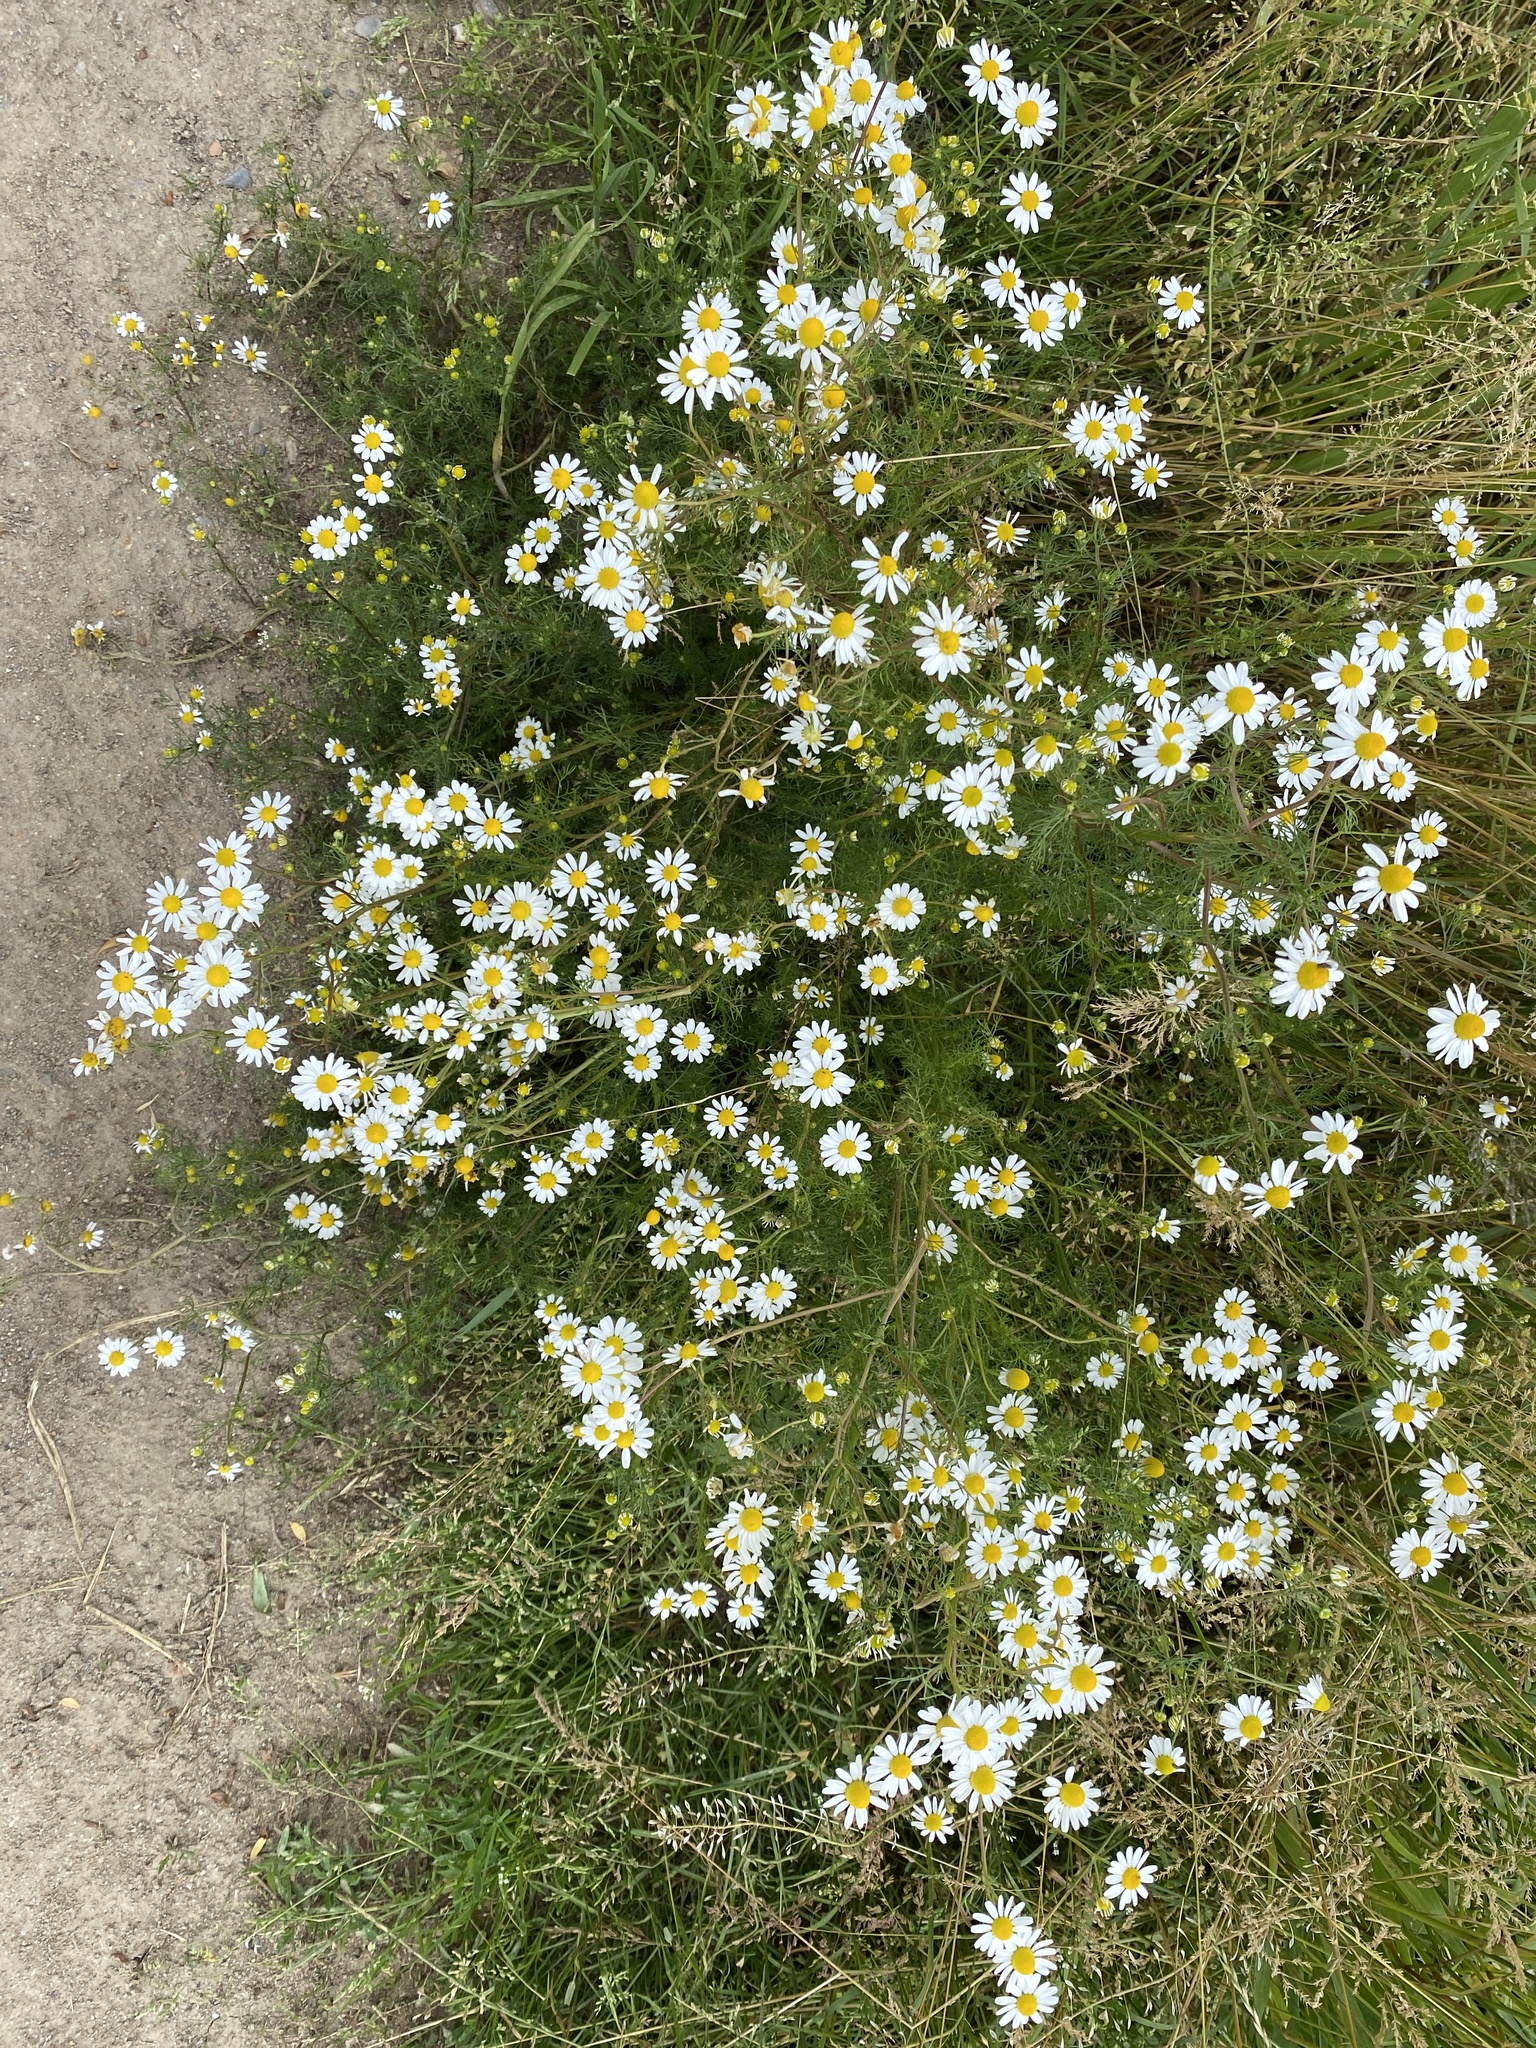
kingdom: Plantae
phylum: Tracheophyta
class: Magnoliopsida
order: Asterales
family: Asteraceae
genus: Matricaria
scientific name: Matricaria chamomilla
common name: Scented mayweed
